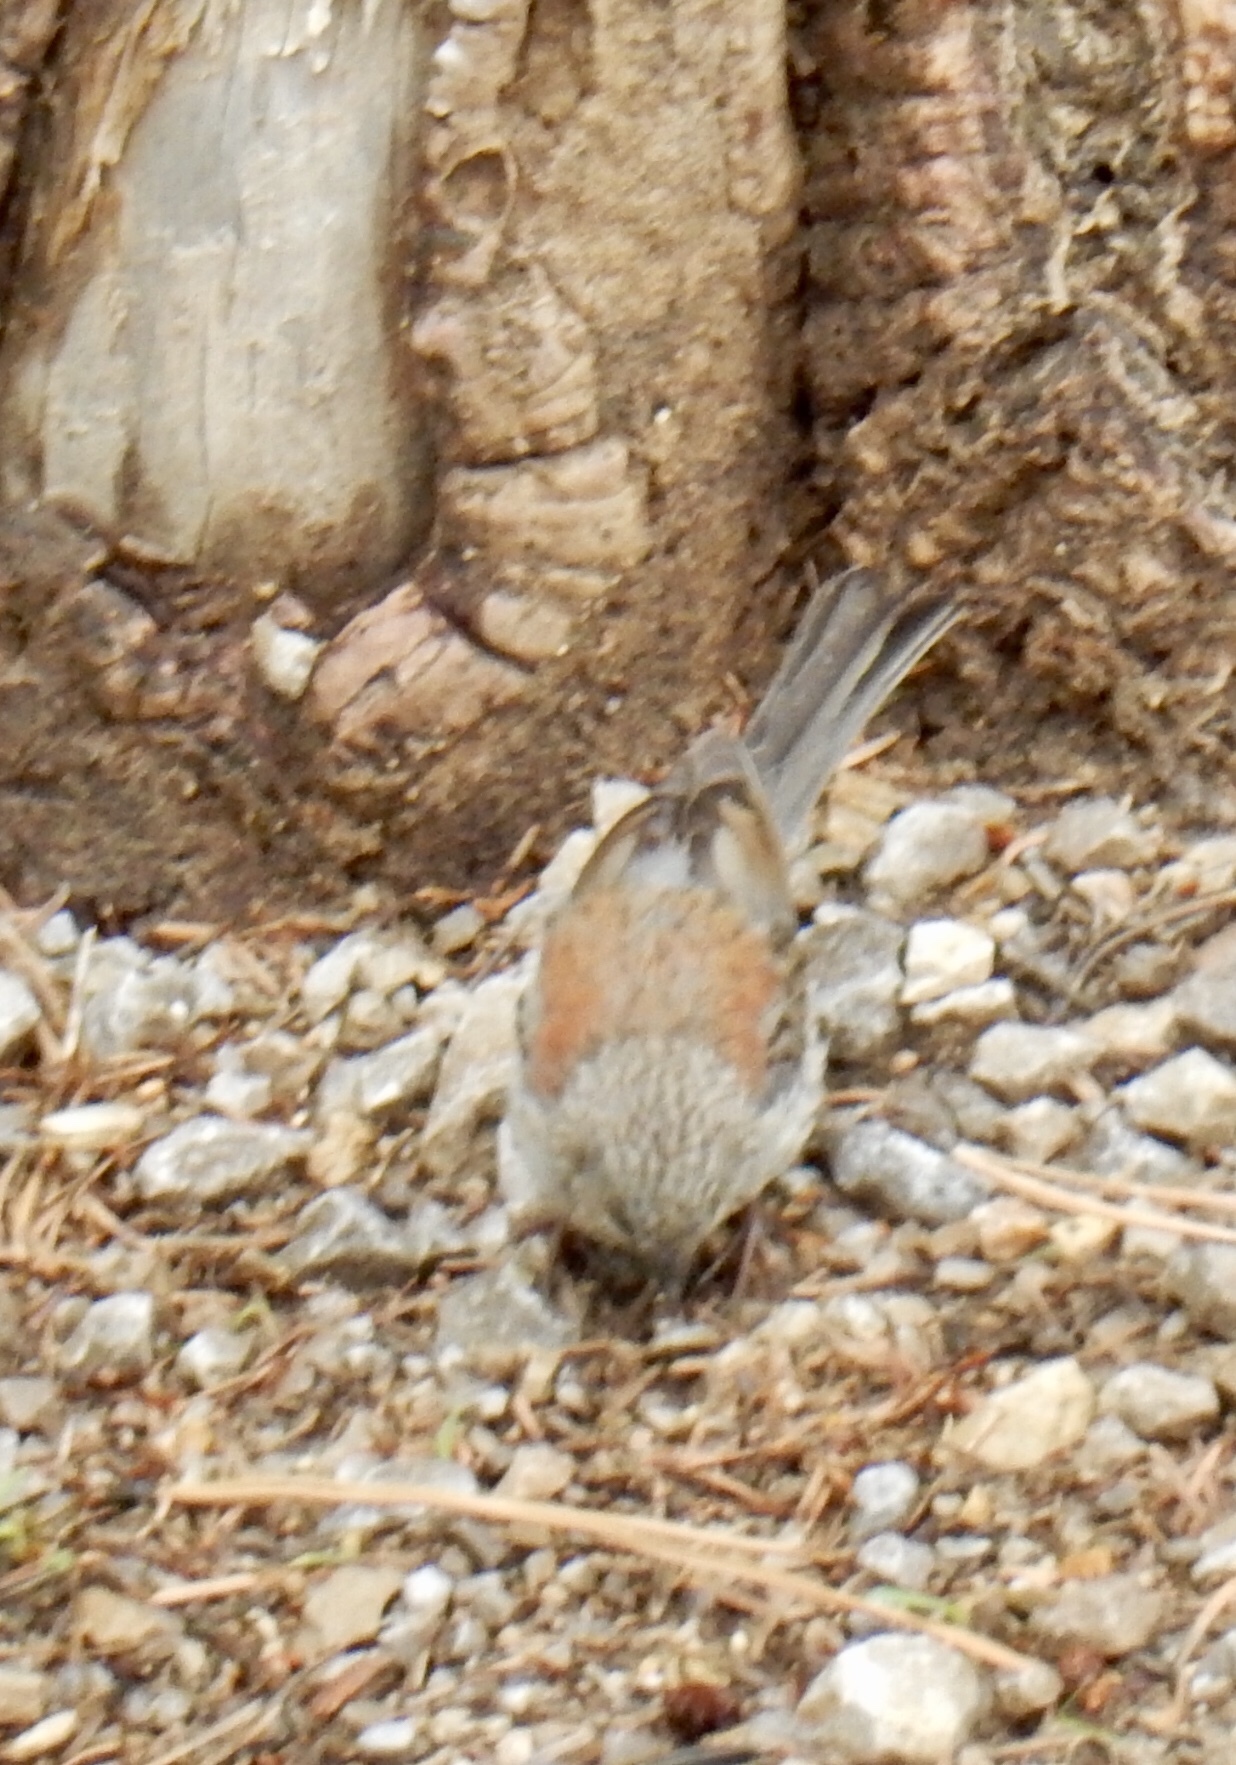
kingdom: Animalia
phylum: Chordata
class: Aves
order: Passeriformes
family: Passerellidae
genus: Junco
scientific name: Junco hyemalis
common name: Dark-eyed junco
